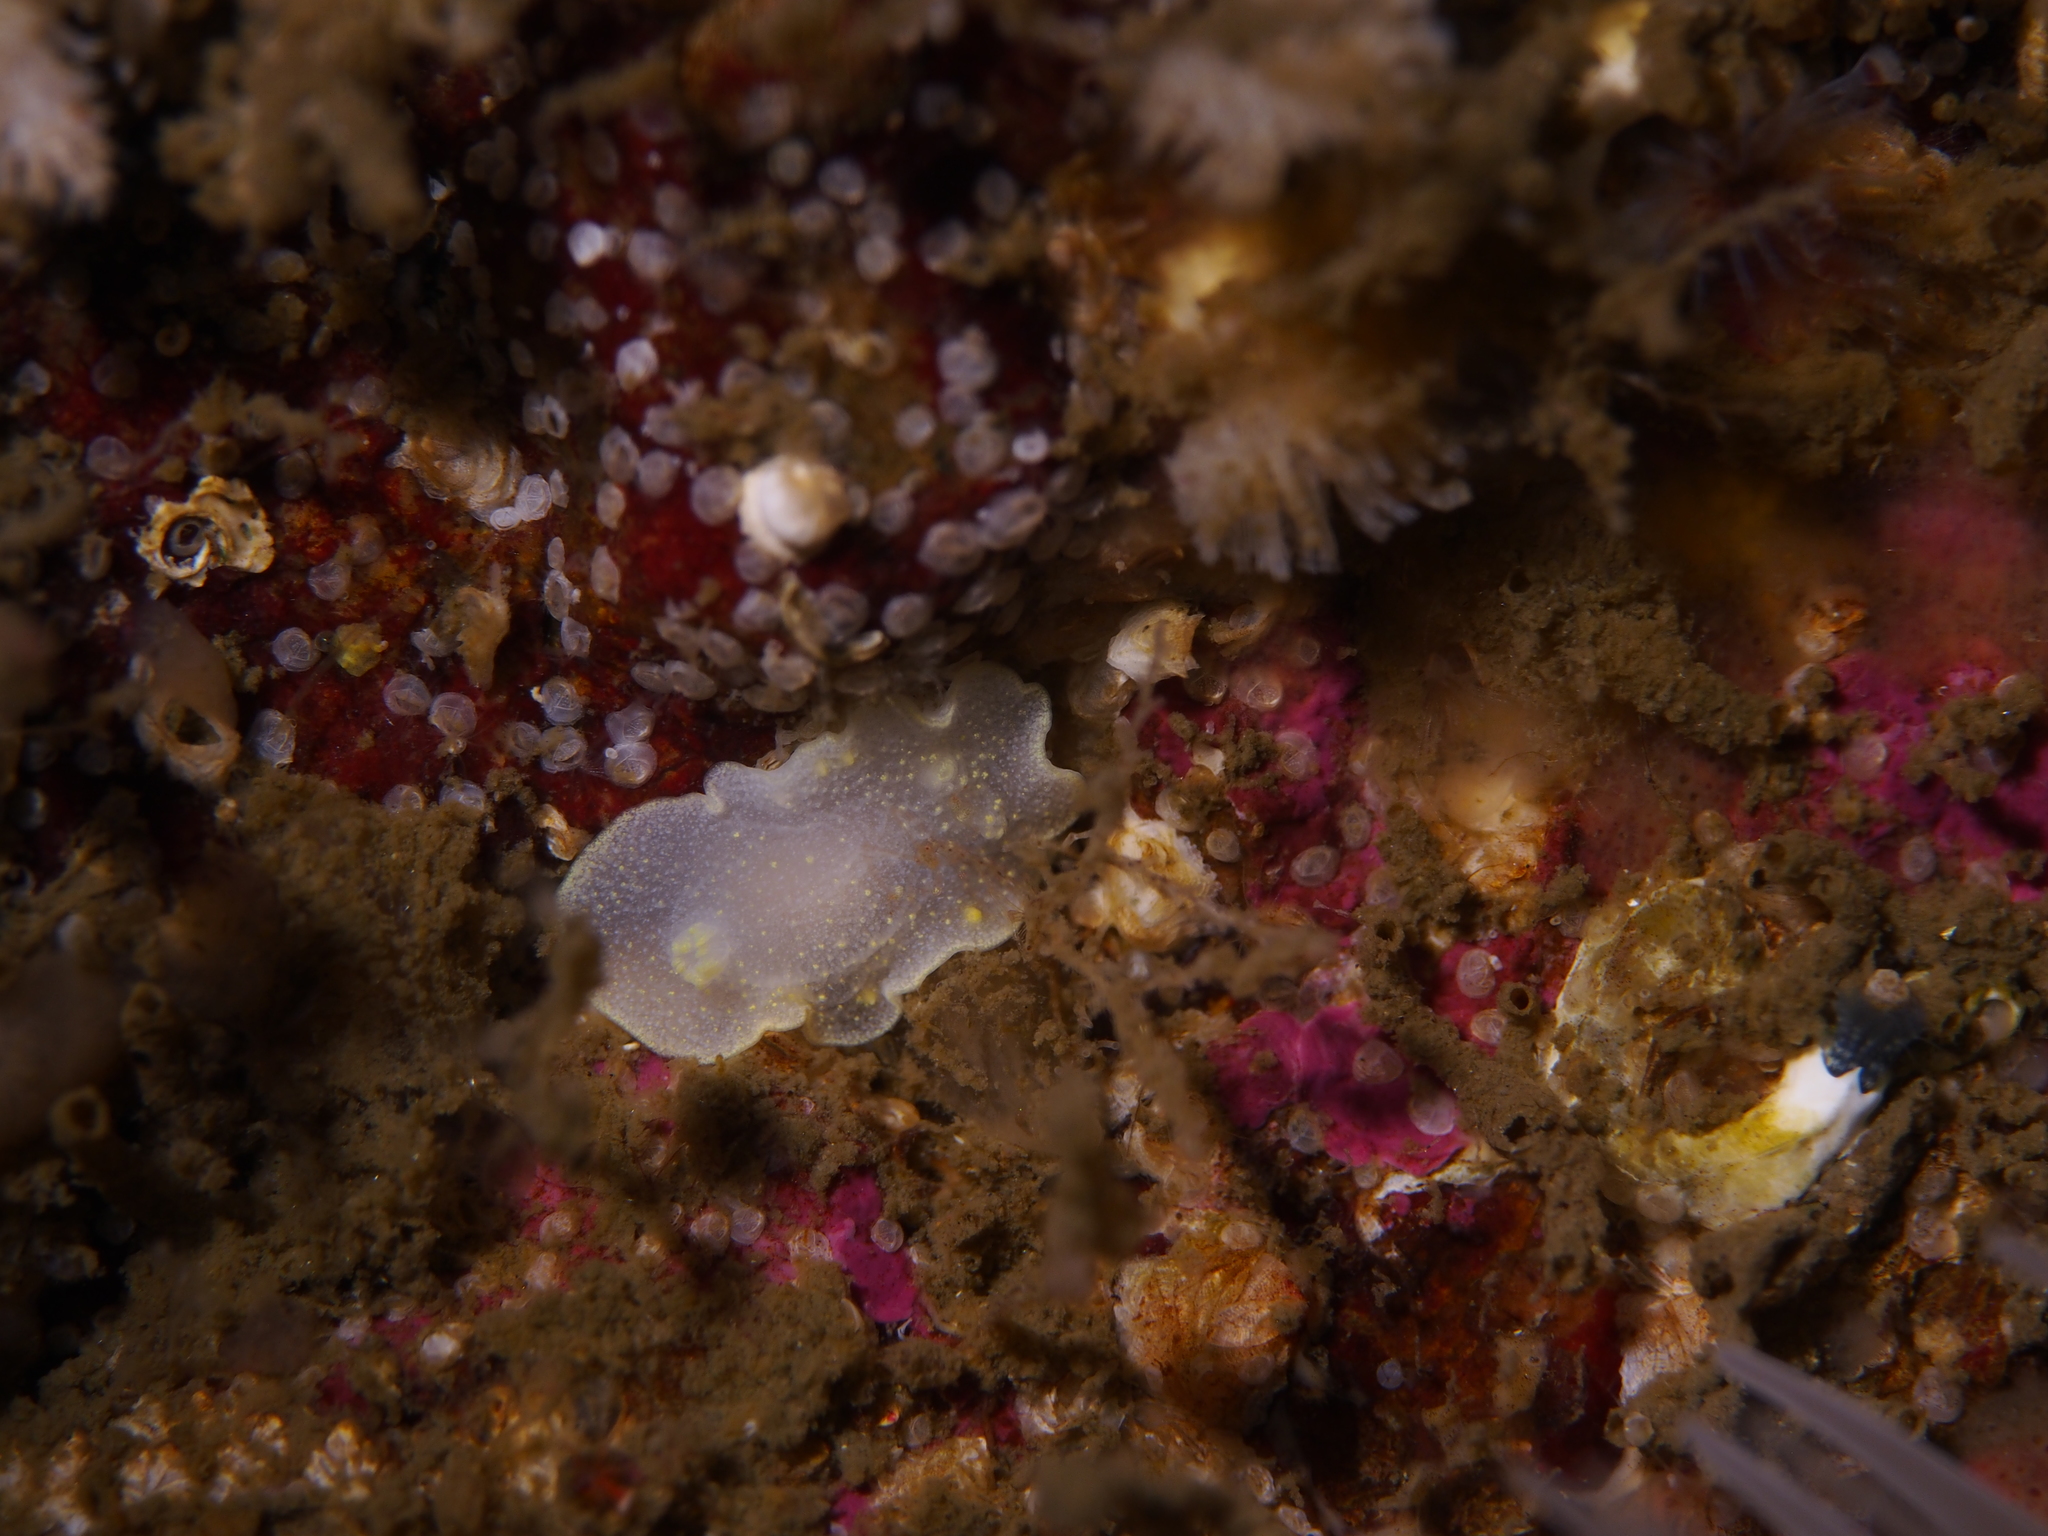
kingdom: Animalia
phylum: Mollusca
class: Gastropoda
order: Nudibranchia
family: Cadlinidae
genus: Cadlina
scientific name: Cadlina laevis
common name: White atlantic cadlina
